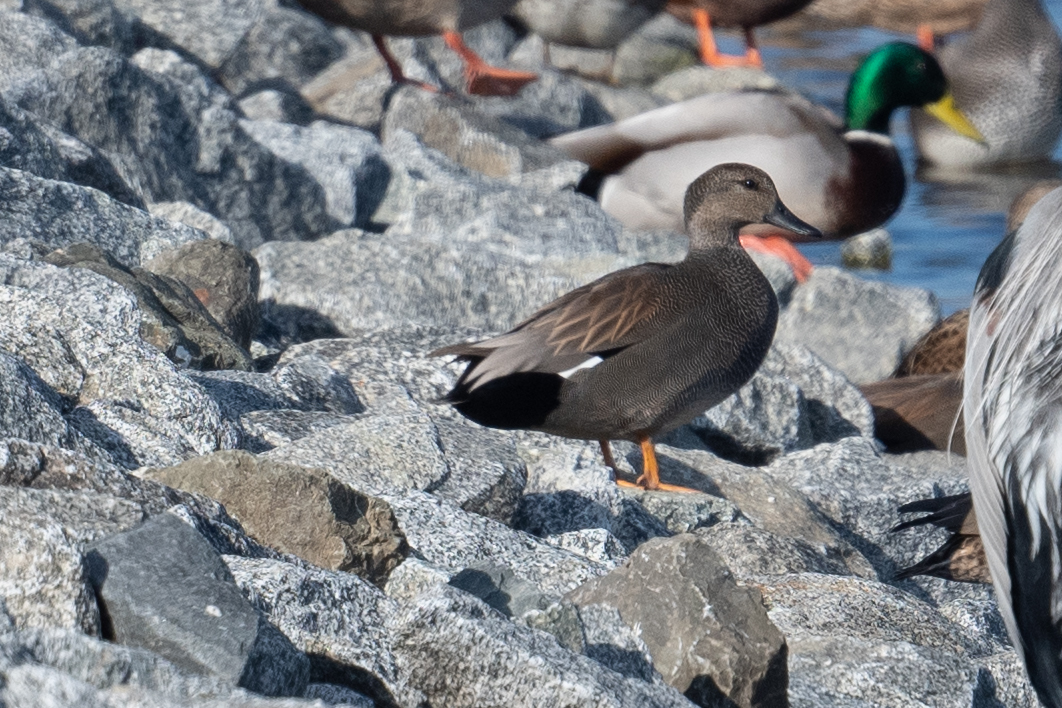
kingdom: Animalia
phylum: Chordata
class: Aves
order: Anseriformes
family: Anatidae
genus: Mareca
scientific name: Mareca strepera
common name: Gadwall
